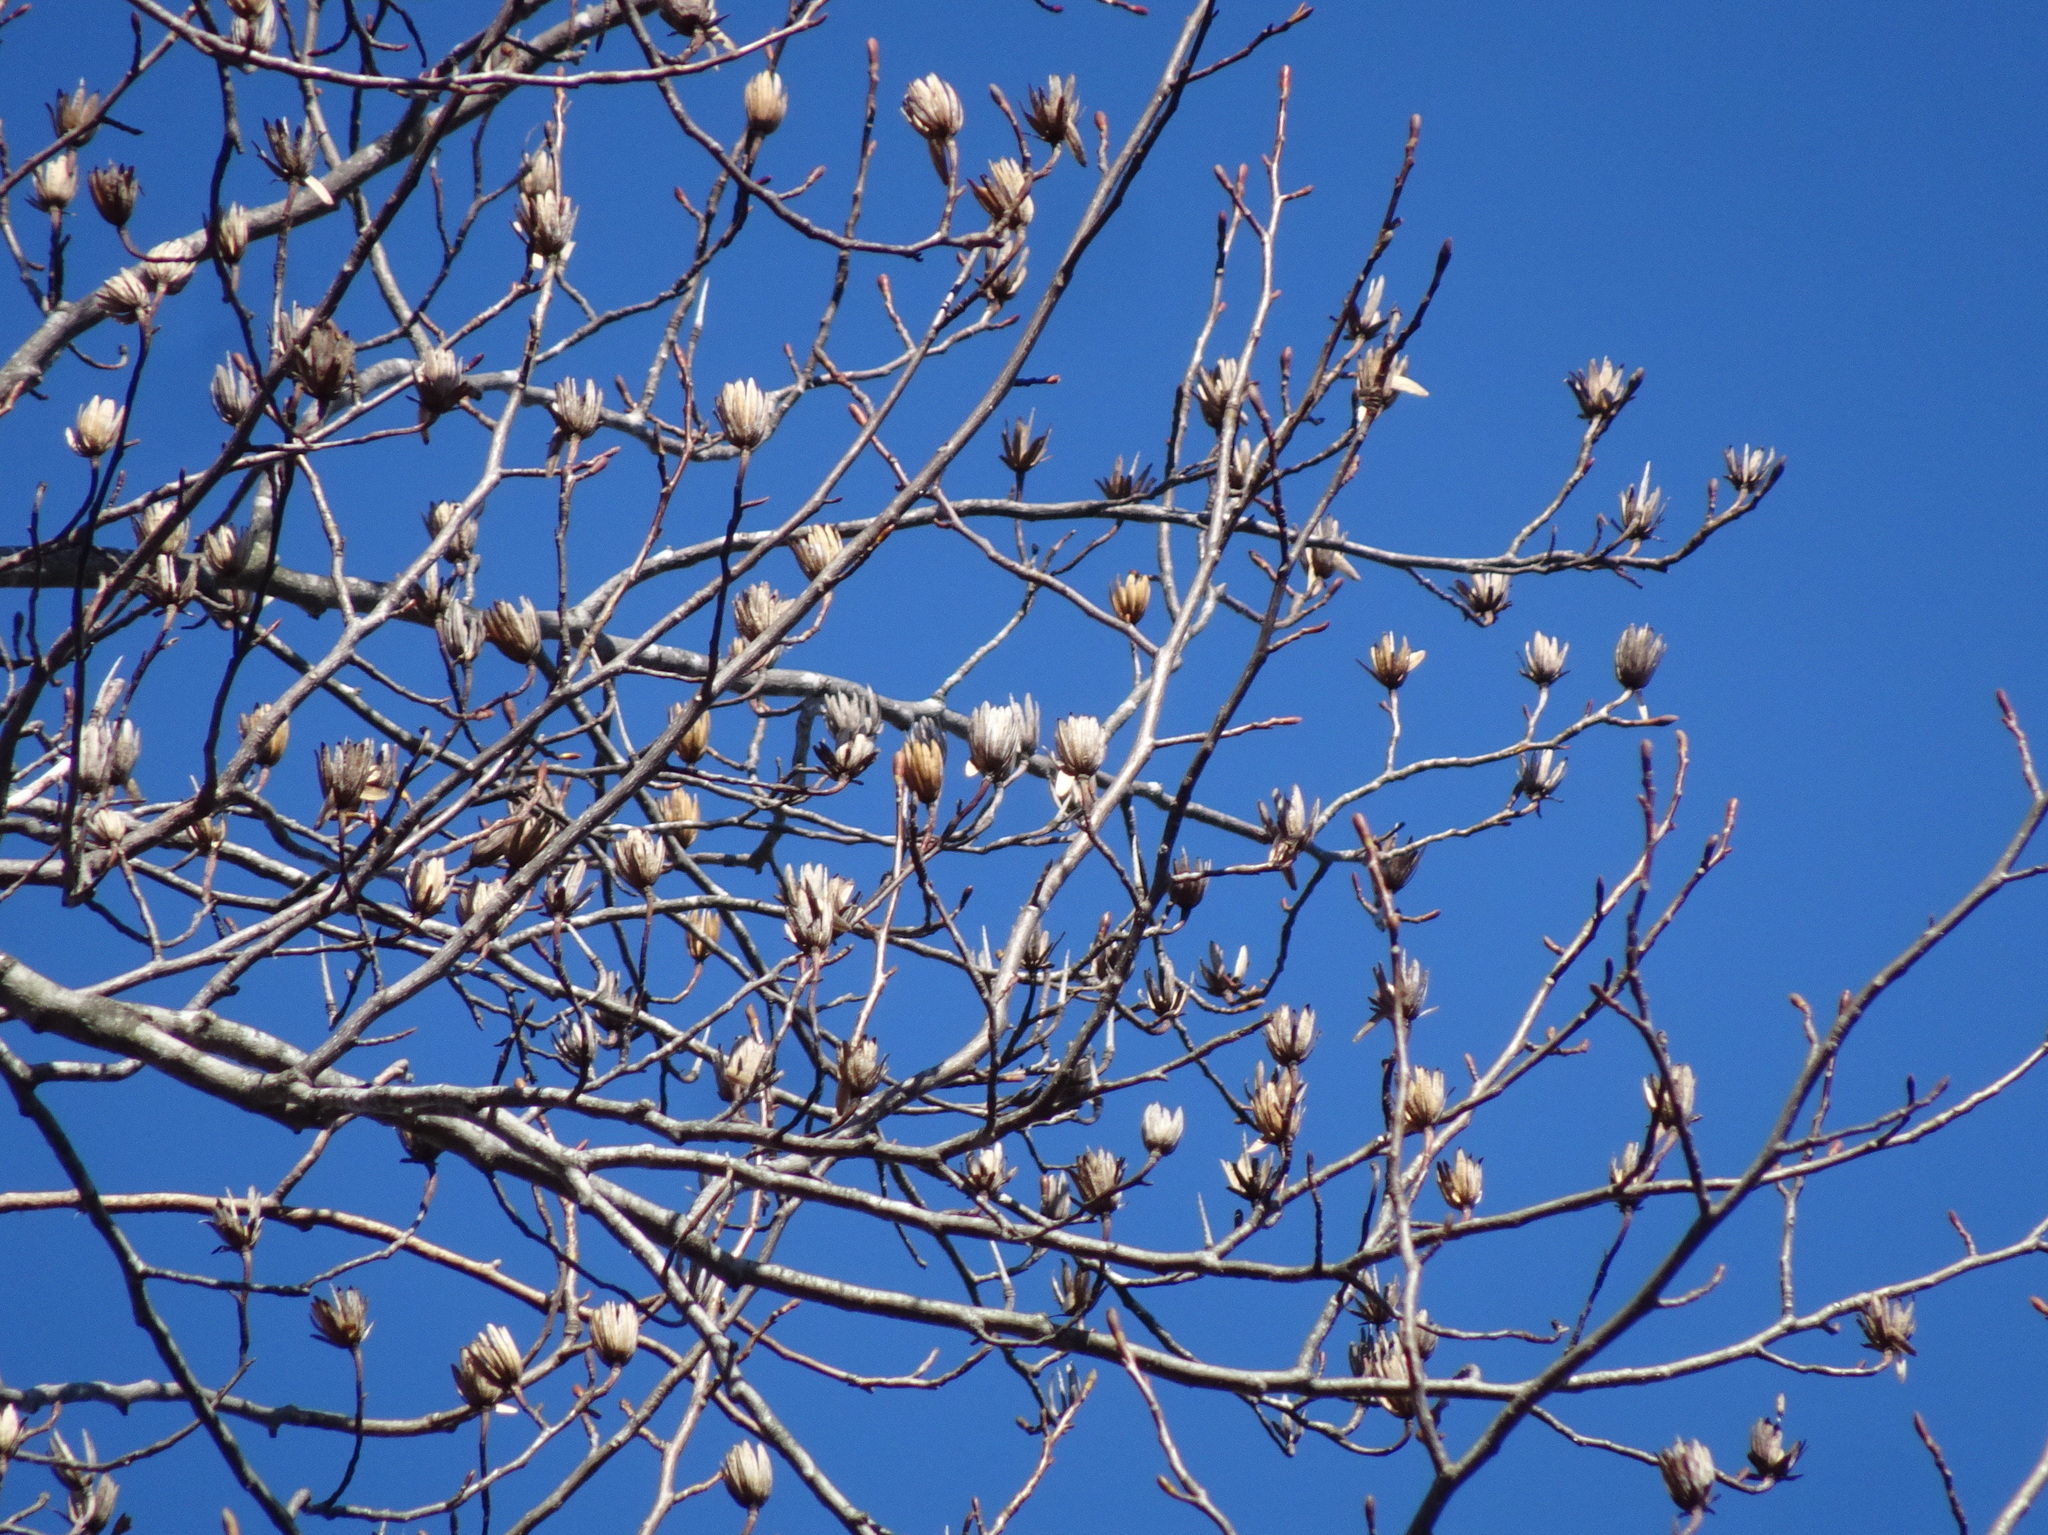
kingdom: Plantae
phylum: Tracheophyta
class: Magnoliopsida
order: Magnoliales
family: Magnoliaceae
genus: Liriodendron
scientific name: Liriodendron tulipifera
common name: Tulip tree
